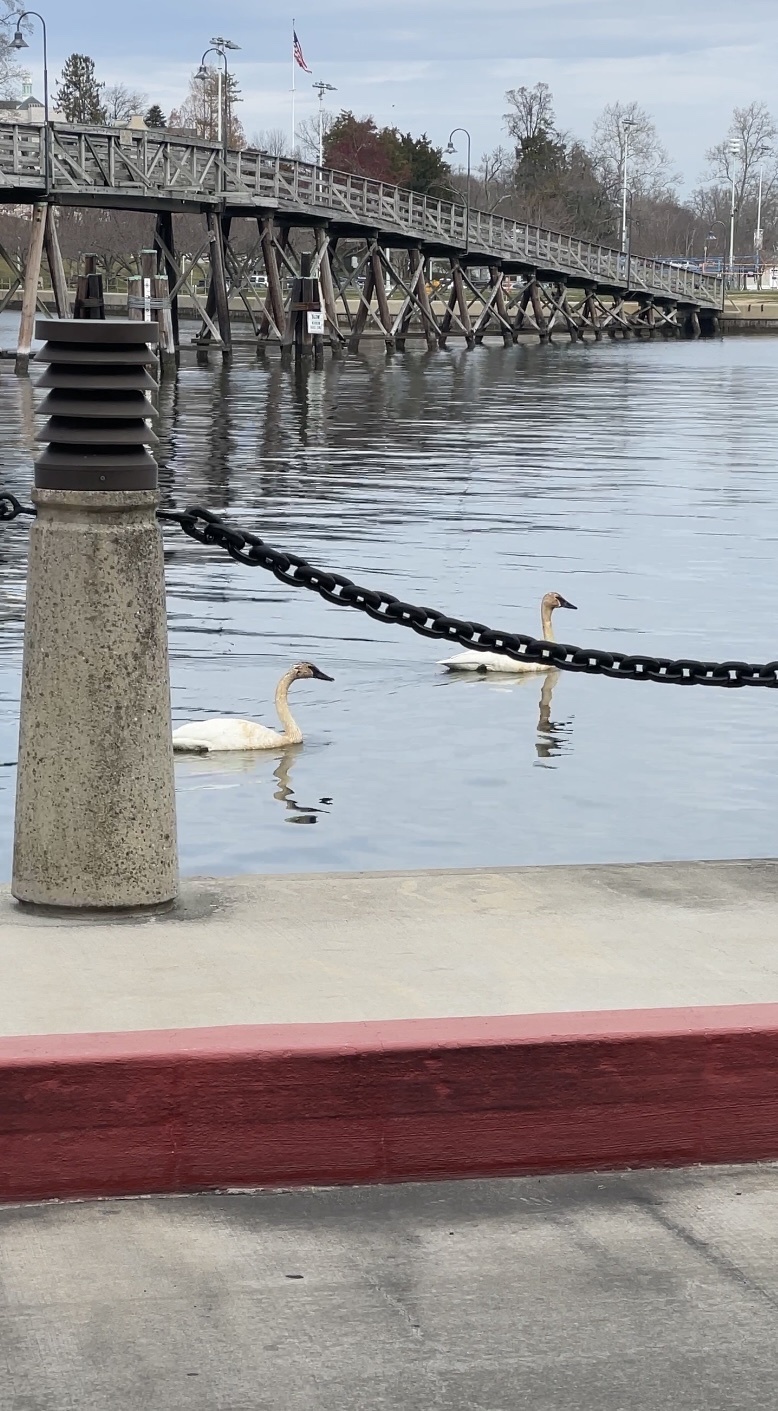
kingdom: Animalia
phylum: Chordata
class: Aves
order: Anseriformes
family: Anatidae
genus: Cygnus
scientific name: Cygnus buccinator
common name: Trumpeter swan
